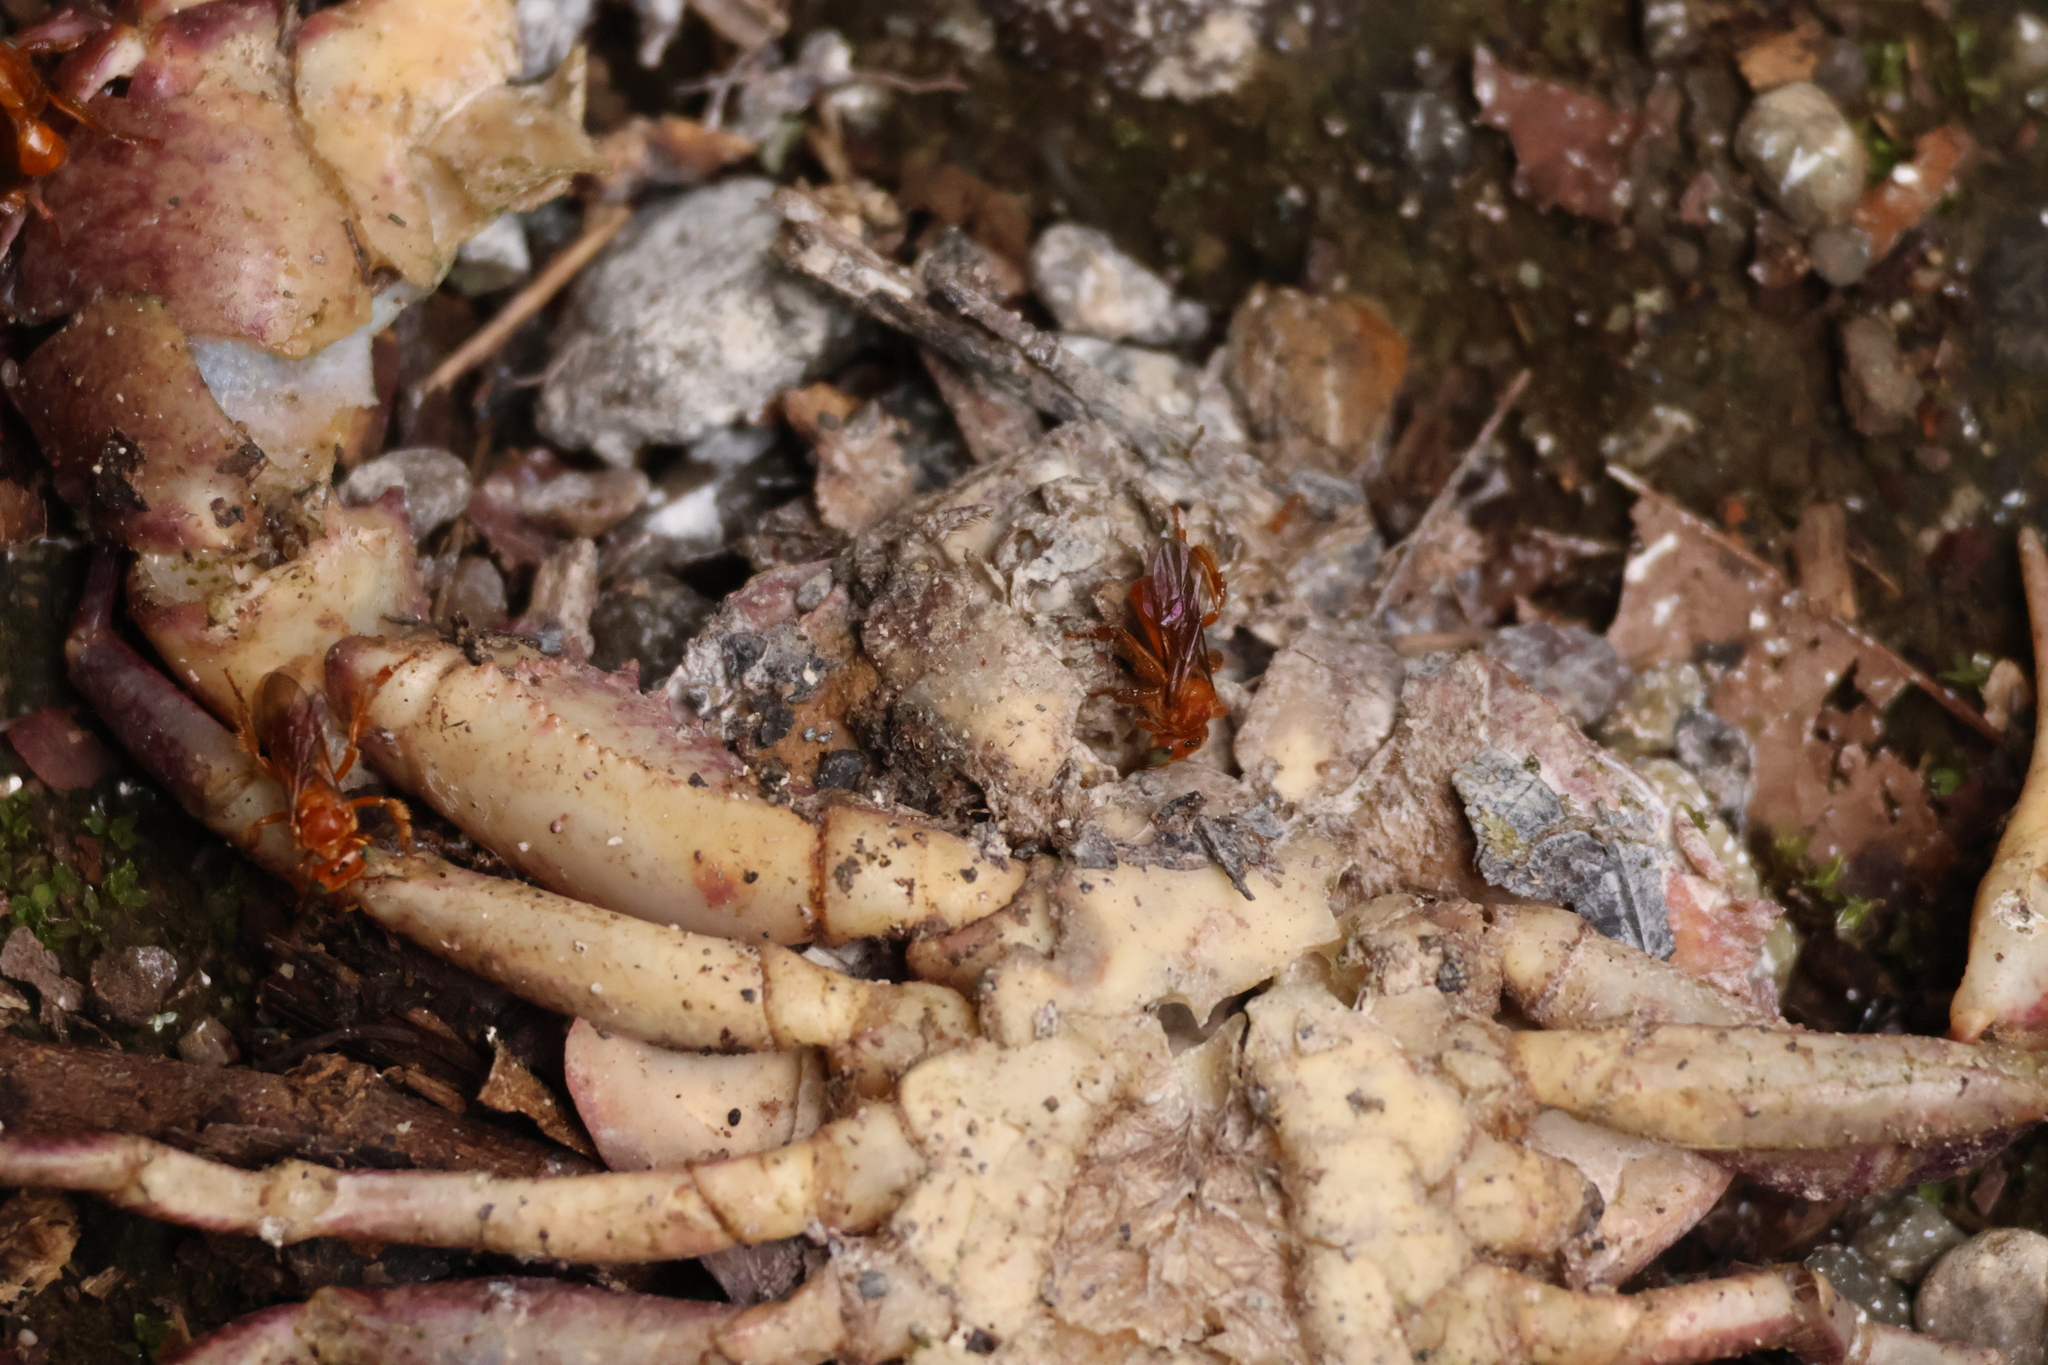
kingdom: Animalia
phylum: Arthropoda
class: Insecta
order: Hymenoptera
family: Apidae
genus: Trigona
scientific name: Trigona muzoensis
